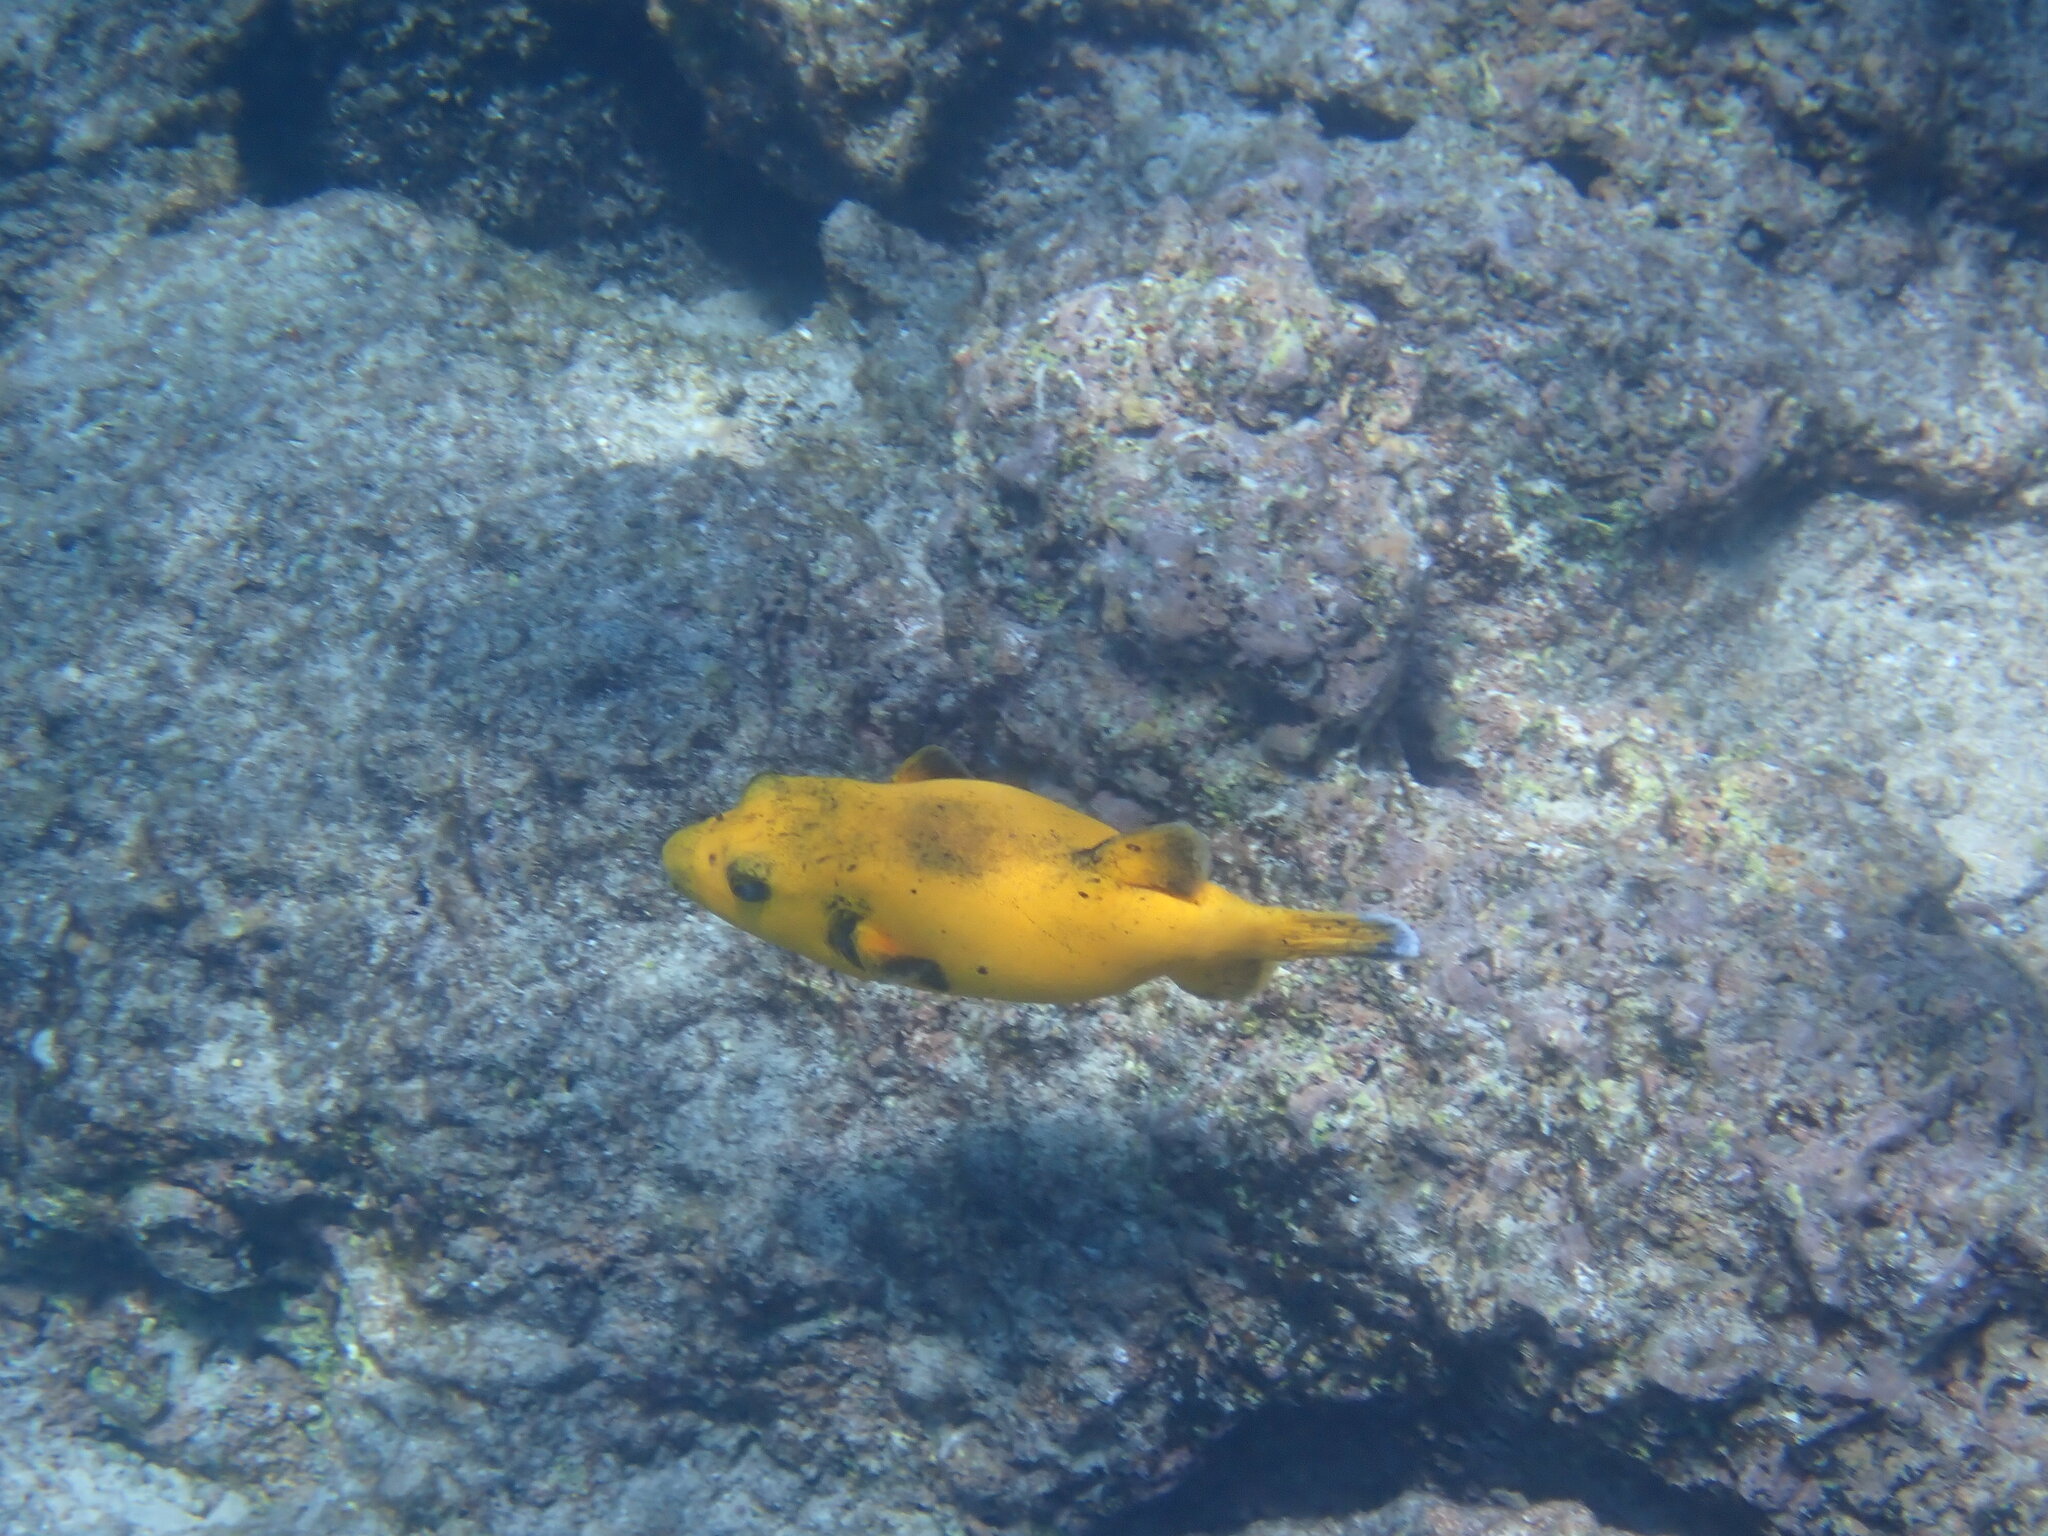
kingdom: Animalia
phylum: Chordata
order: Tetraodontiformes
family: Tetraodontidae
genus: Arothron
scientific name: Arothron meleagris
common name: Guinea-fowl pufferfish
